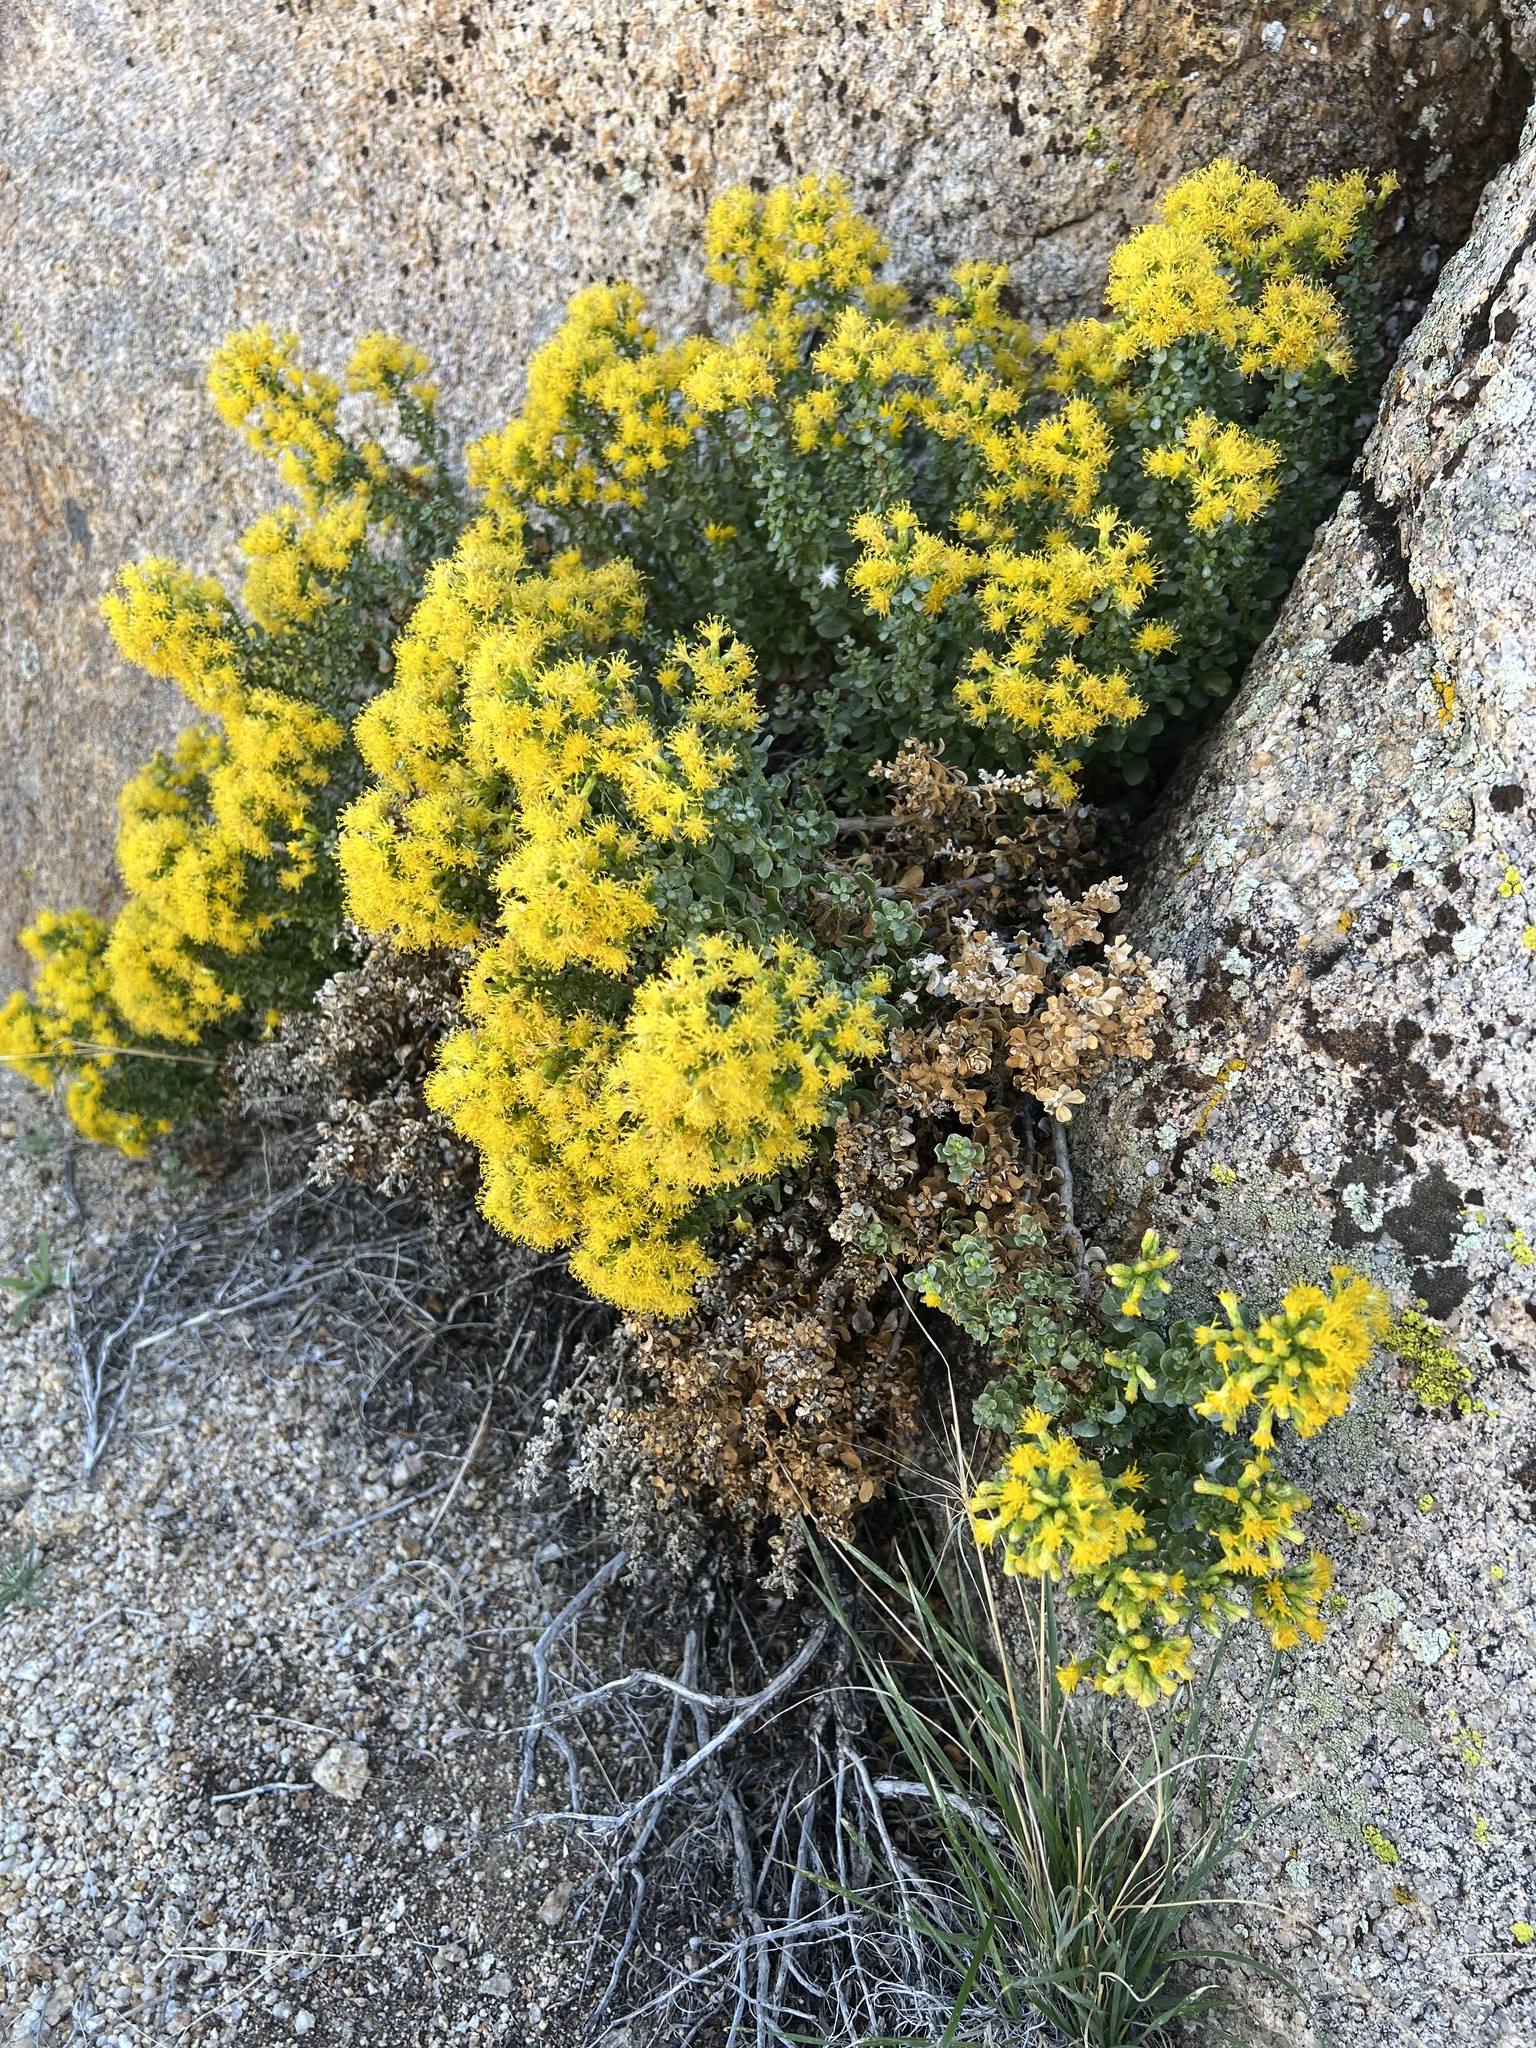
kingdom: Plantae
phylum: Tracheophyta
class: Magnoliopsida
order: Asterales
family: Asteraceae
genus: Ericameria
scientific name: Ericameria cuneata
